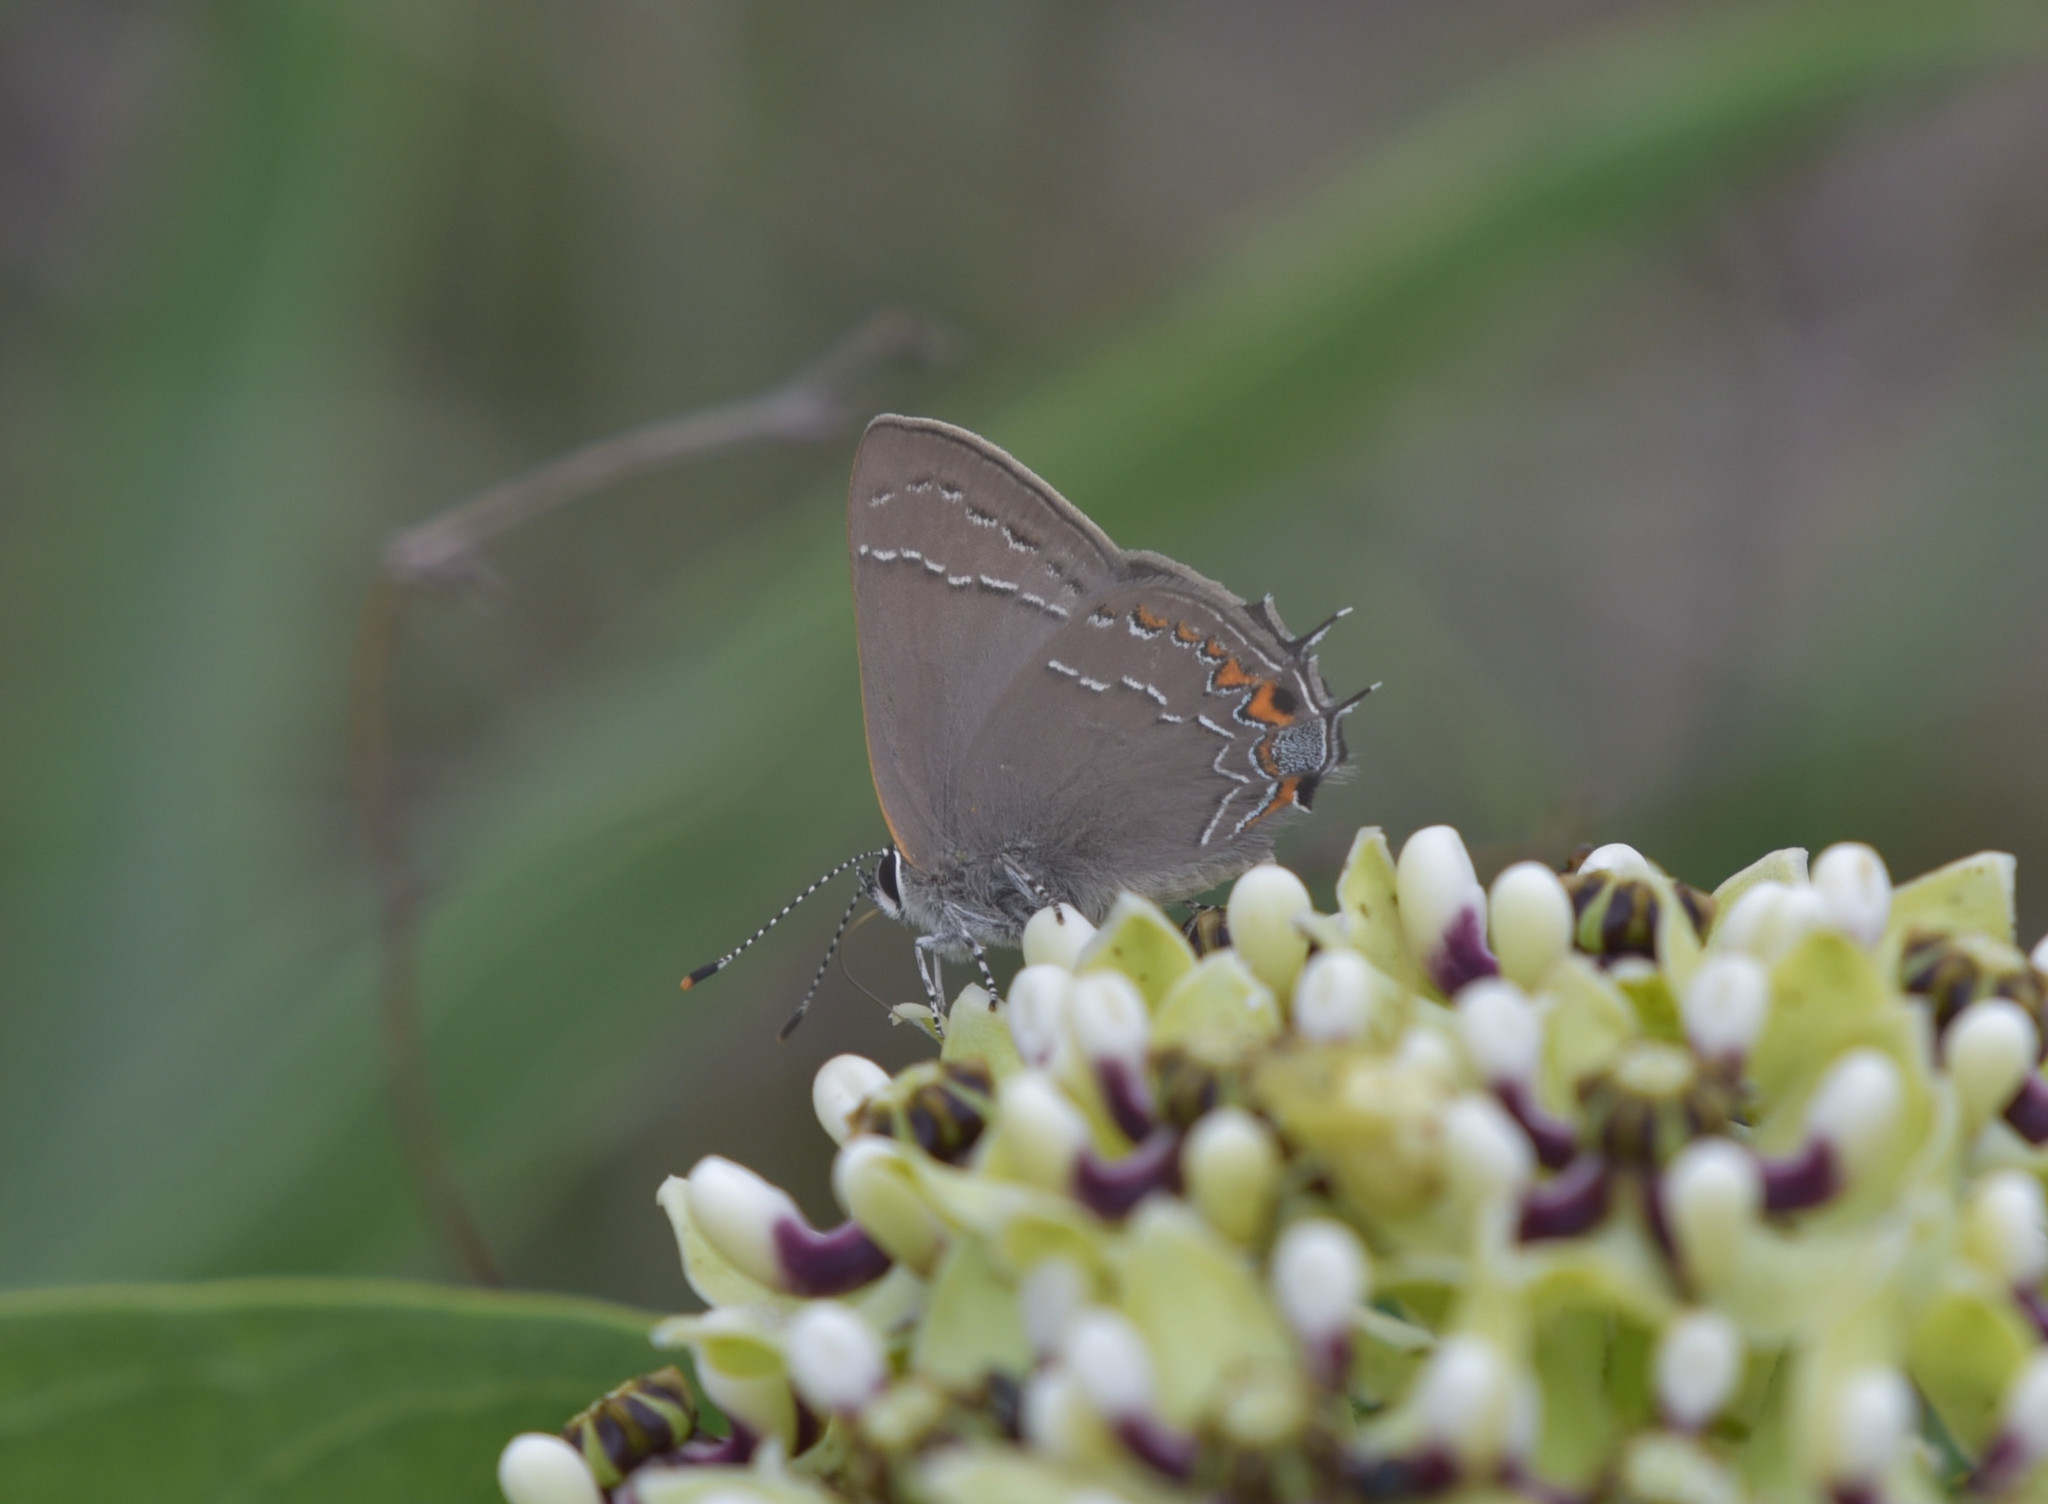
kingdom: Animalia
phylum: Arthropoda
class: Insecta
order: Lepidoptera
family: Lycaenidae
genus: Fixsenia
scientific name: Fixsenia favonius
